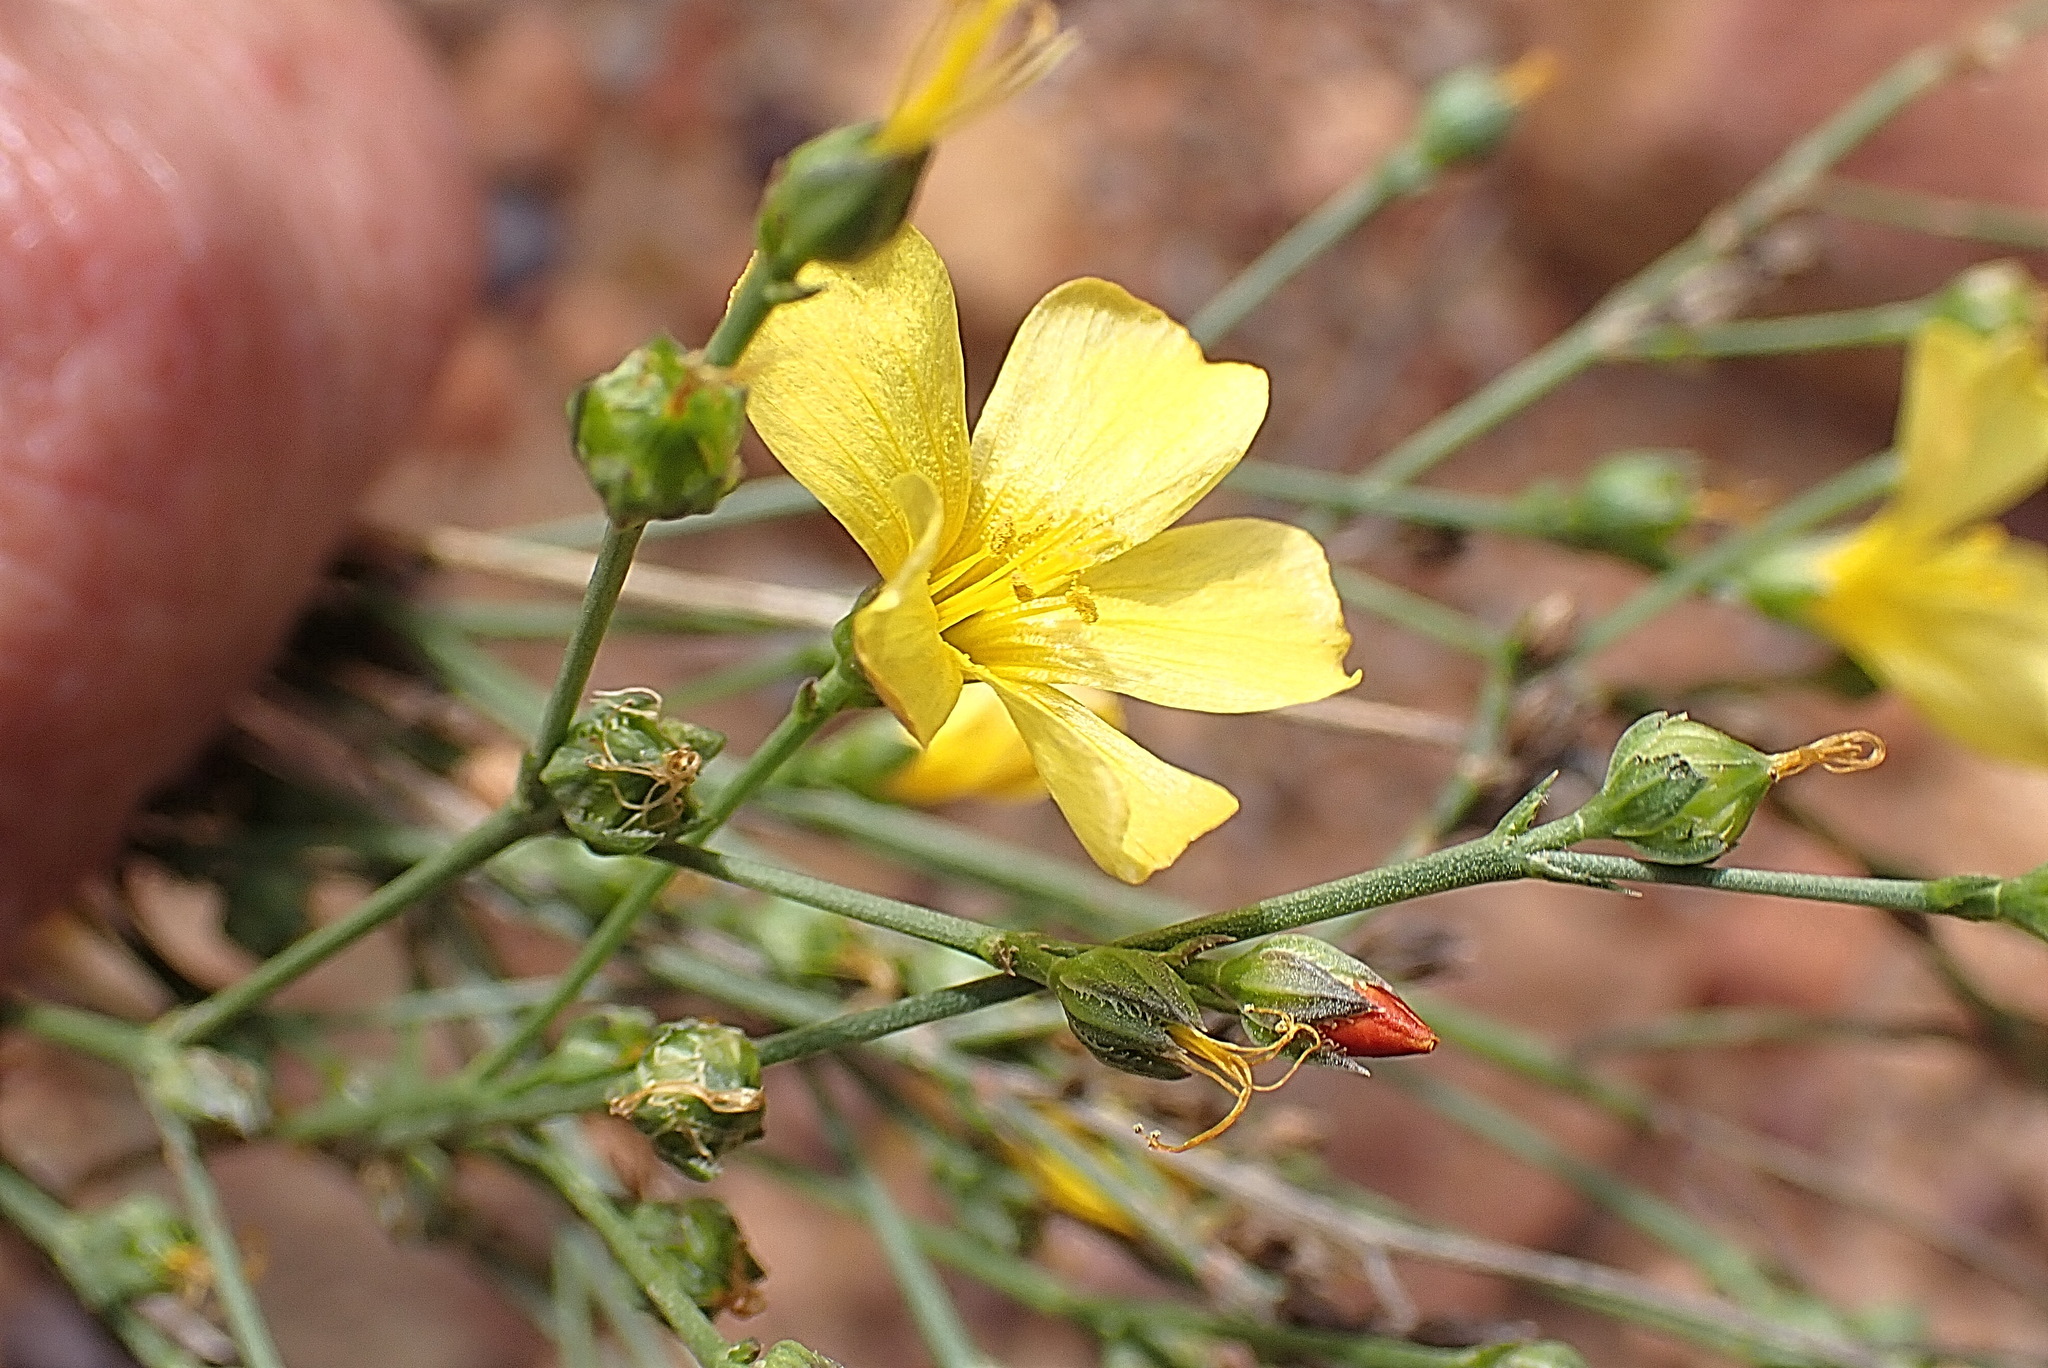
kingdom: Plantae
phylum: Tracheophyta
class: Magnoliopsida
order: Malpighiales
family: Linaceae
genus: Linum
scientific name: Linum africanum
